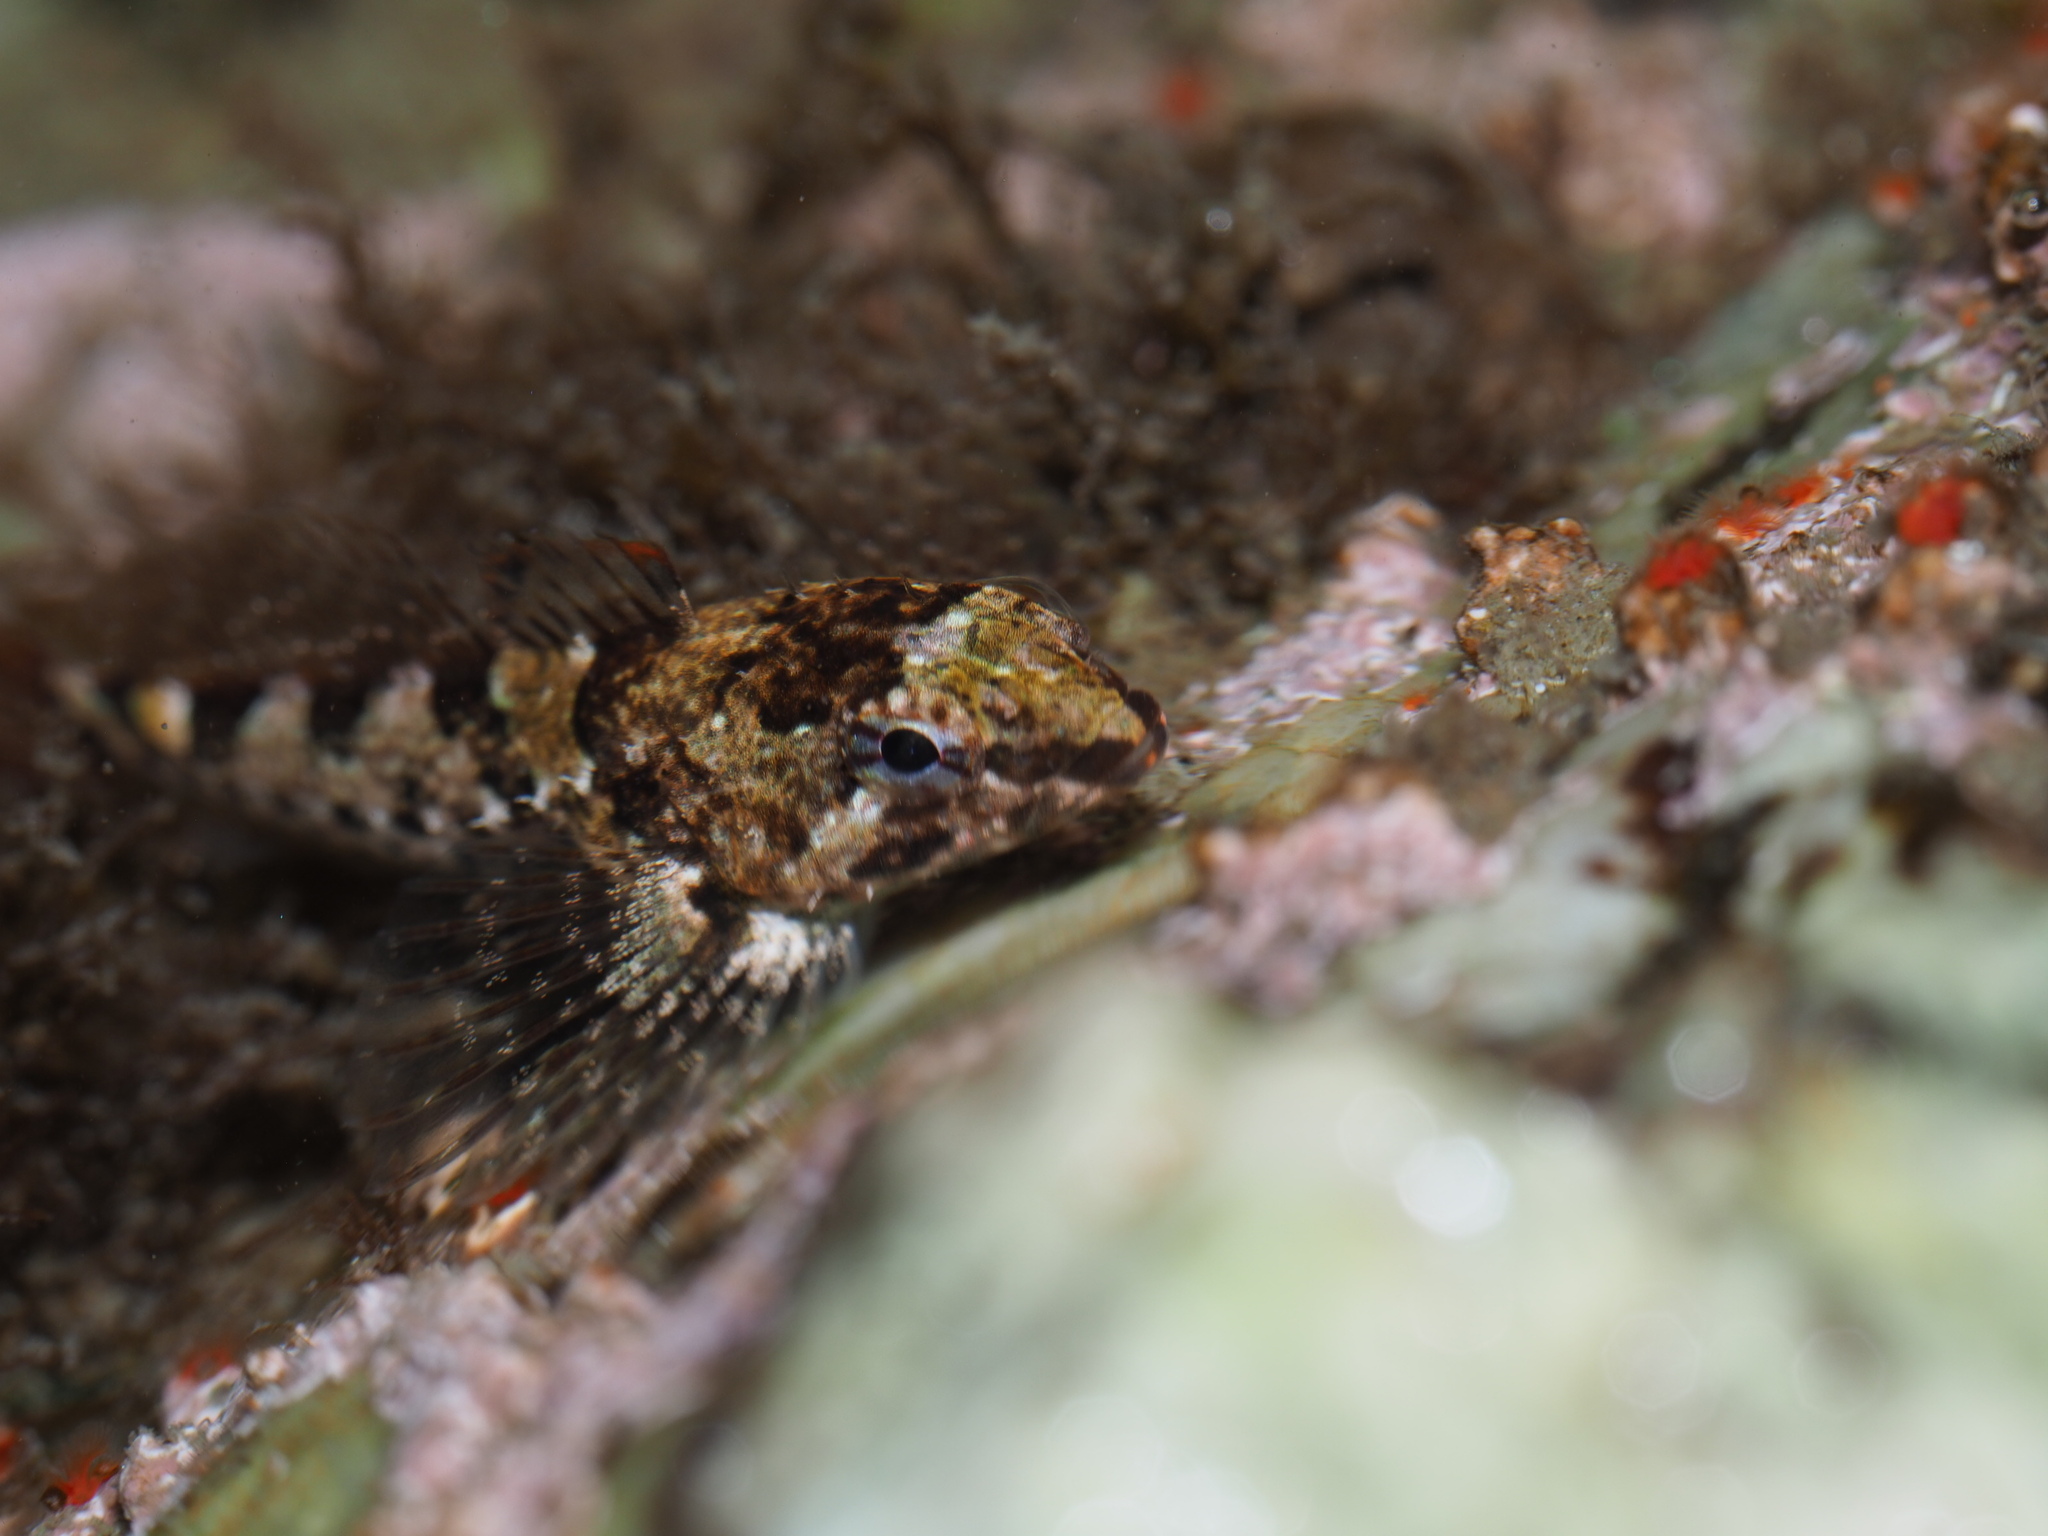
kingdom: Animalia
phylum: Chordata
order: Scorpaeniformes
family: Cottidae
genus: Oligocottus
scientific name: Oligocottus maculosus
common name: Tidepool sculpin
